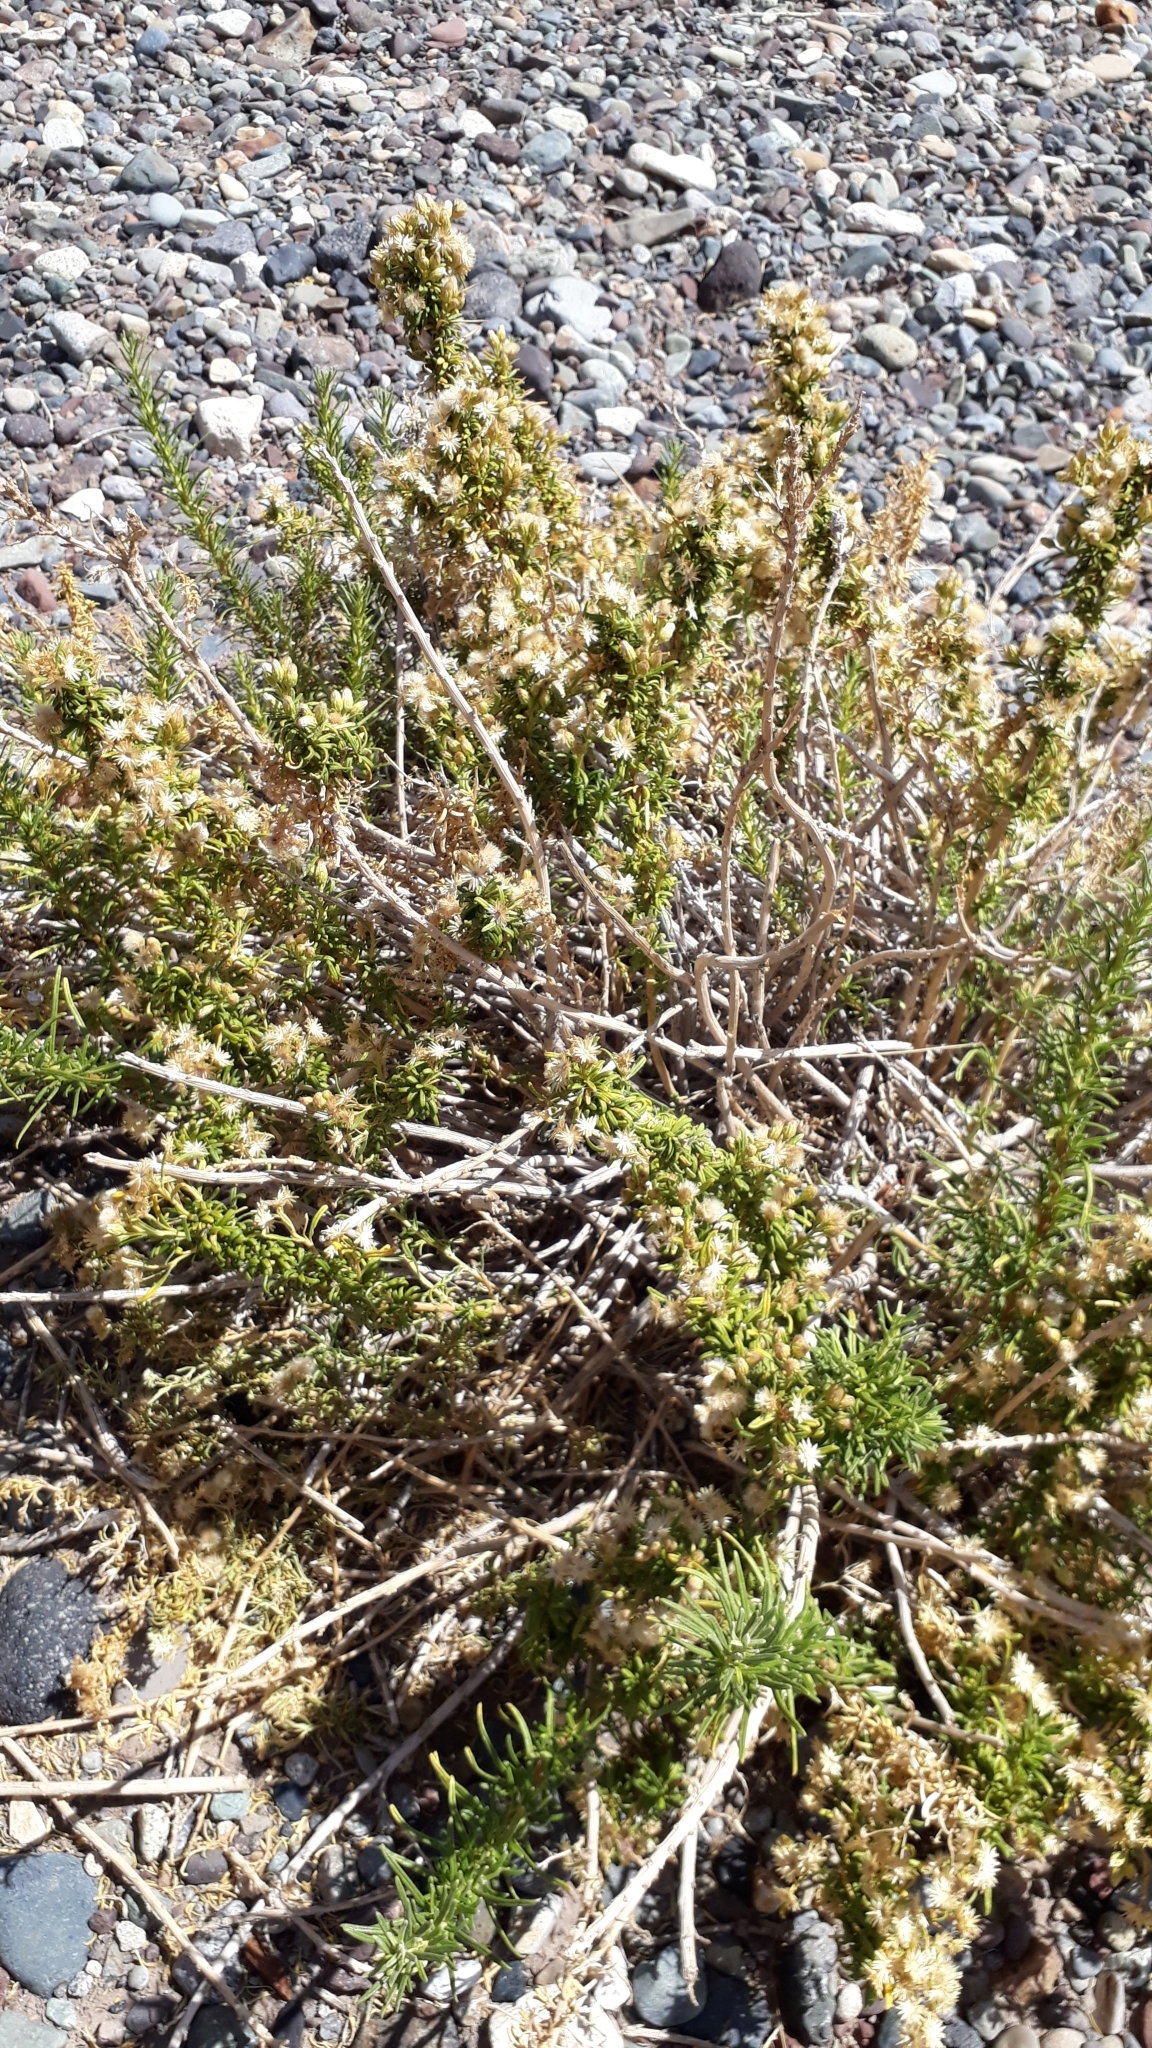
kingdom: Plantae
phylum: Tracheophyta
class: Magnoliopsida
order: Asterales
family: Asteraceae
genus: Baccharis
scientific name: Baccharis grisebachii
